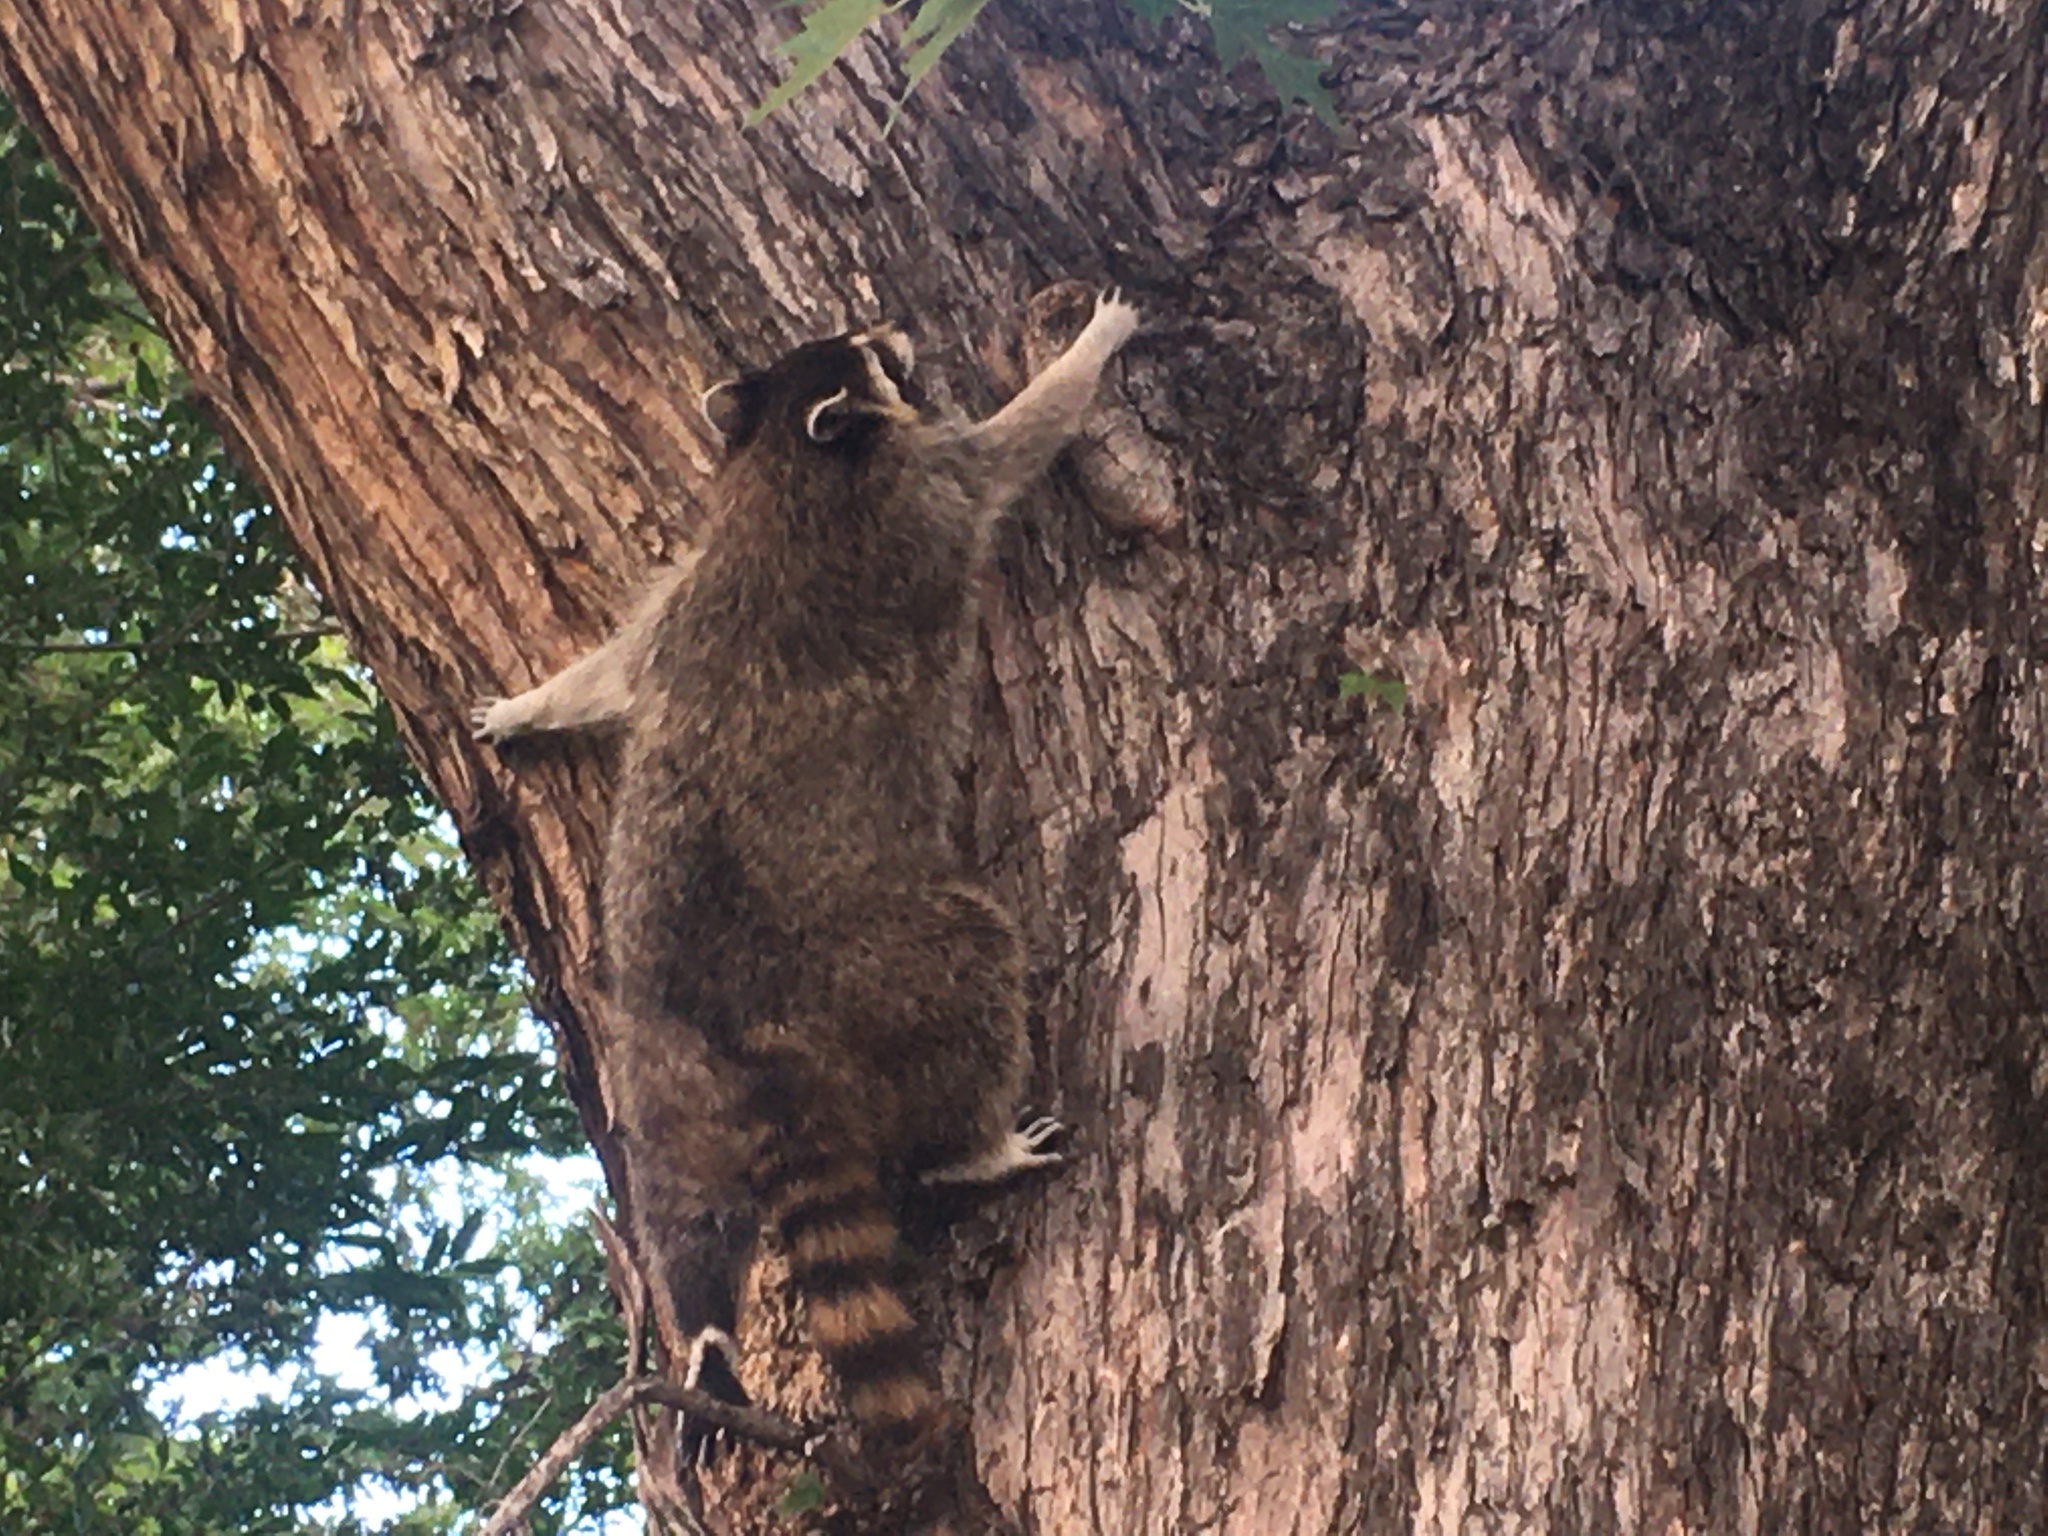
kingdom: Animalia
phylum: Chordata
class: Mammalia
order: Carnivora
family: Procyonidae
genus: Procyon
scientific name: Procyon lotor
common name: Raccoon
